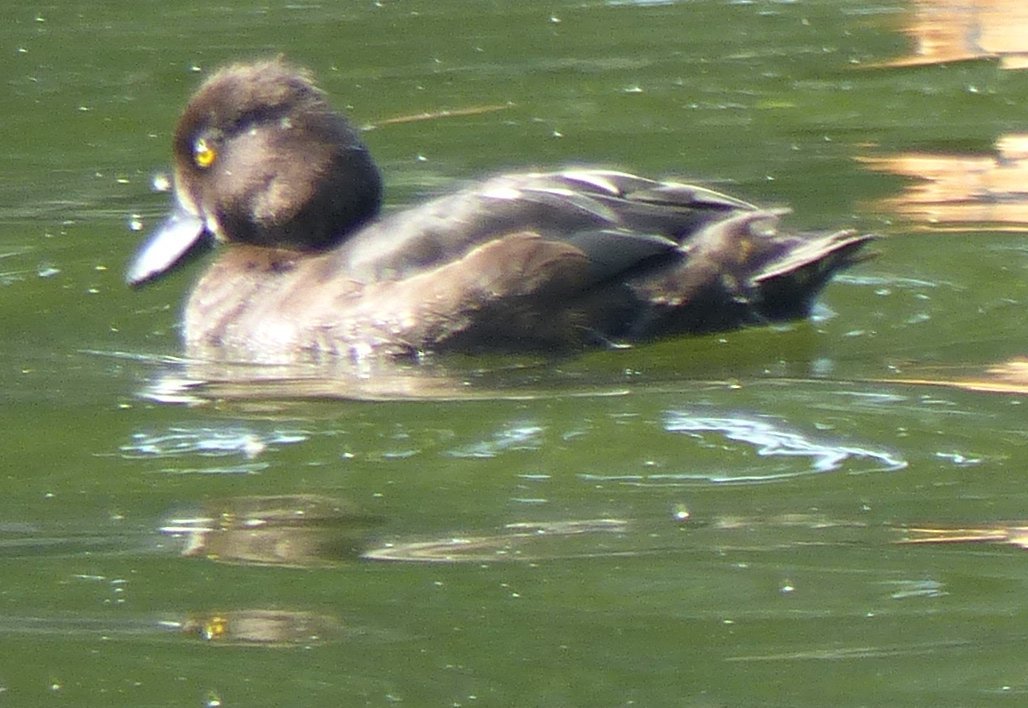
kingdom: Animalia
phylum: Chordata
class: Aves
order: Anseriformes
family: Anatidae
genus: Aythya
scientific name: Aythya fuligula
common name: Tufted duck
